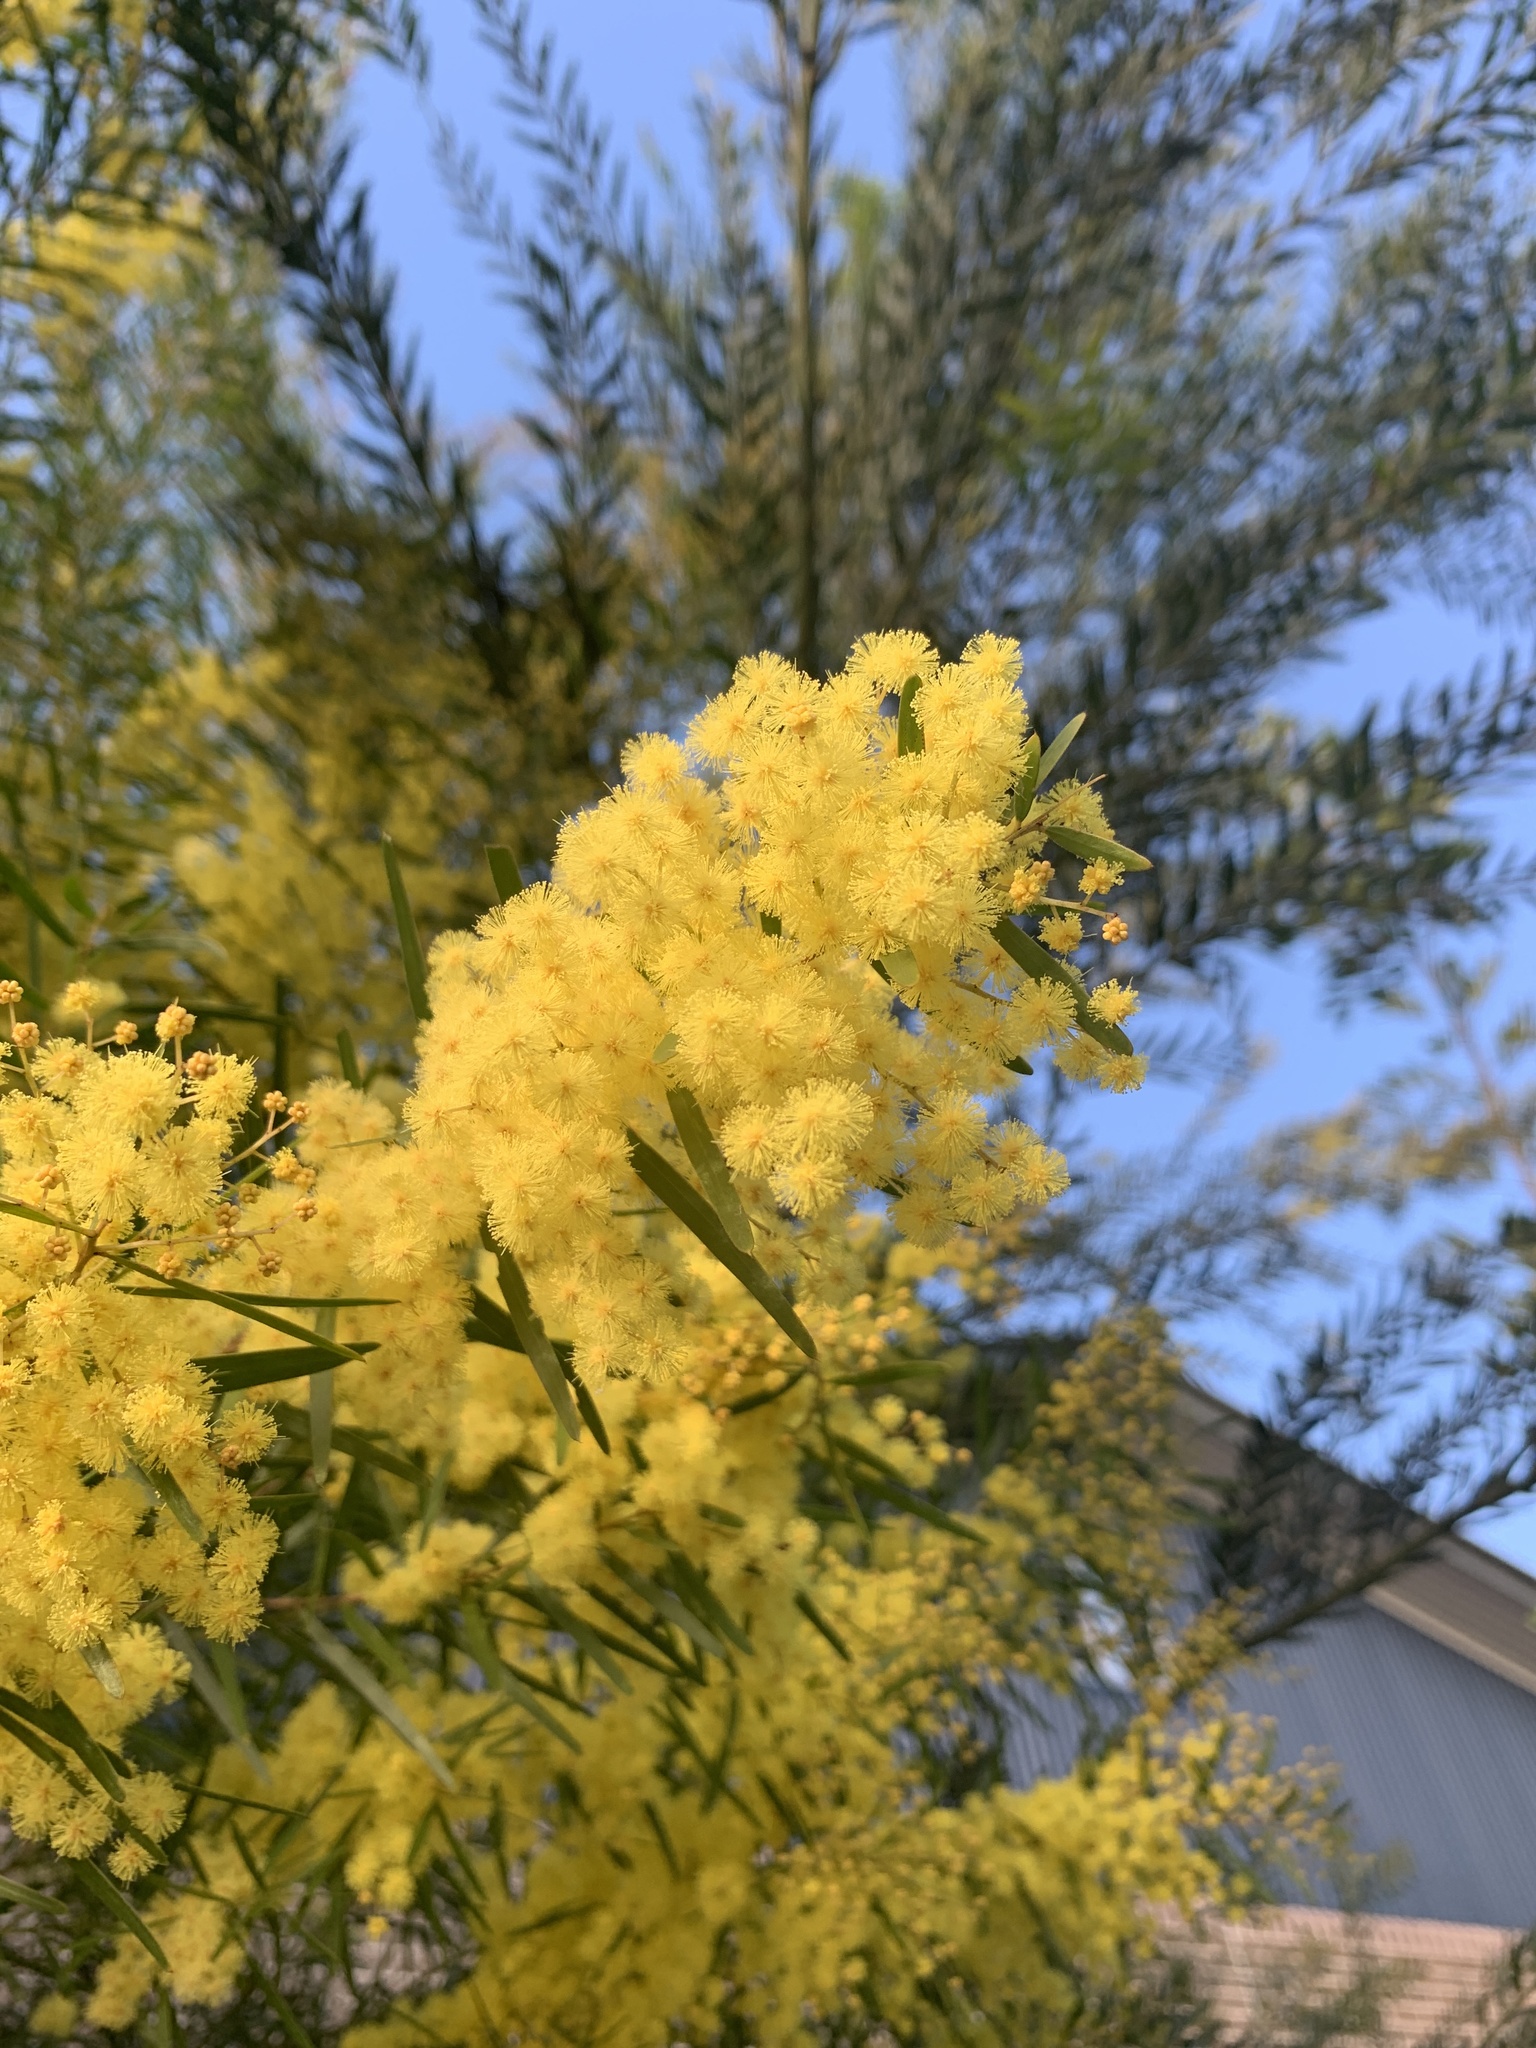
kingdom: Plantae
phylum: Tracheophyta
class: Magnoliopsida
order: Fabales
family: Fabaceae
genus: Acacia
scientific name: Acacia saligna
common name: Orange wattle
